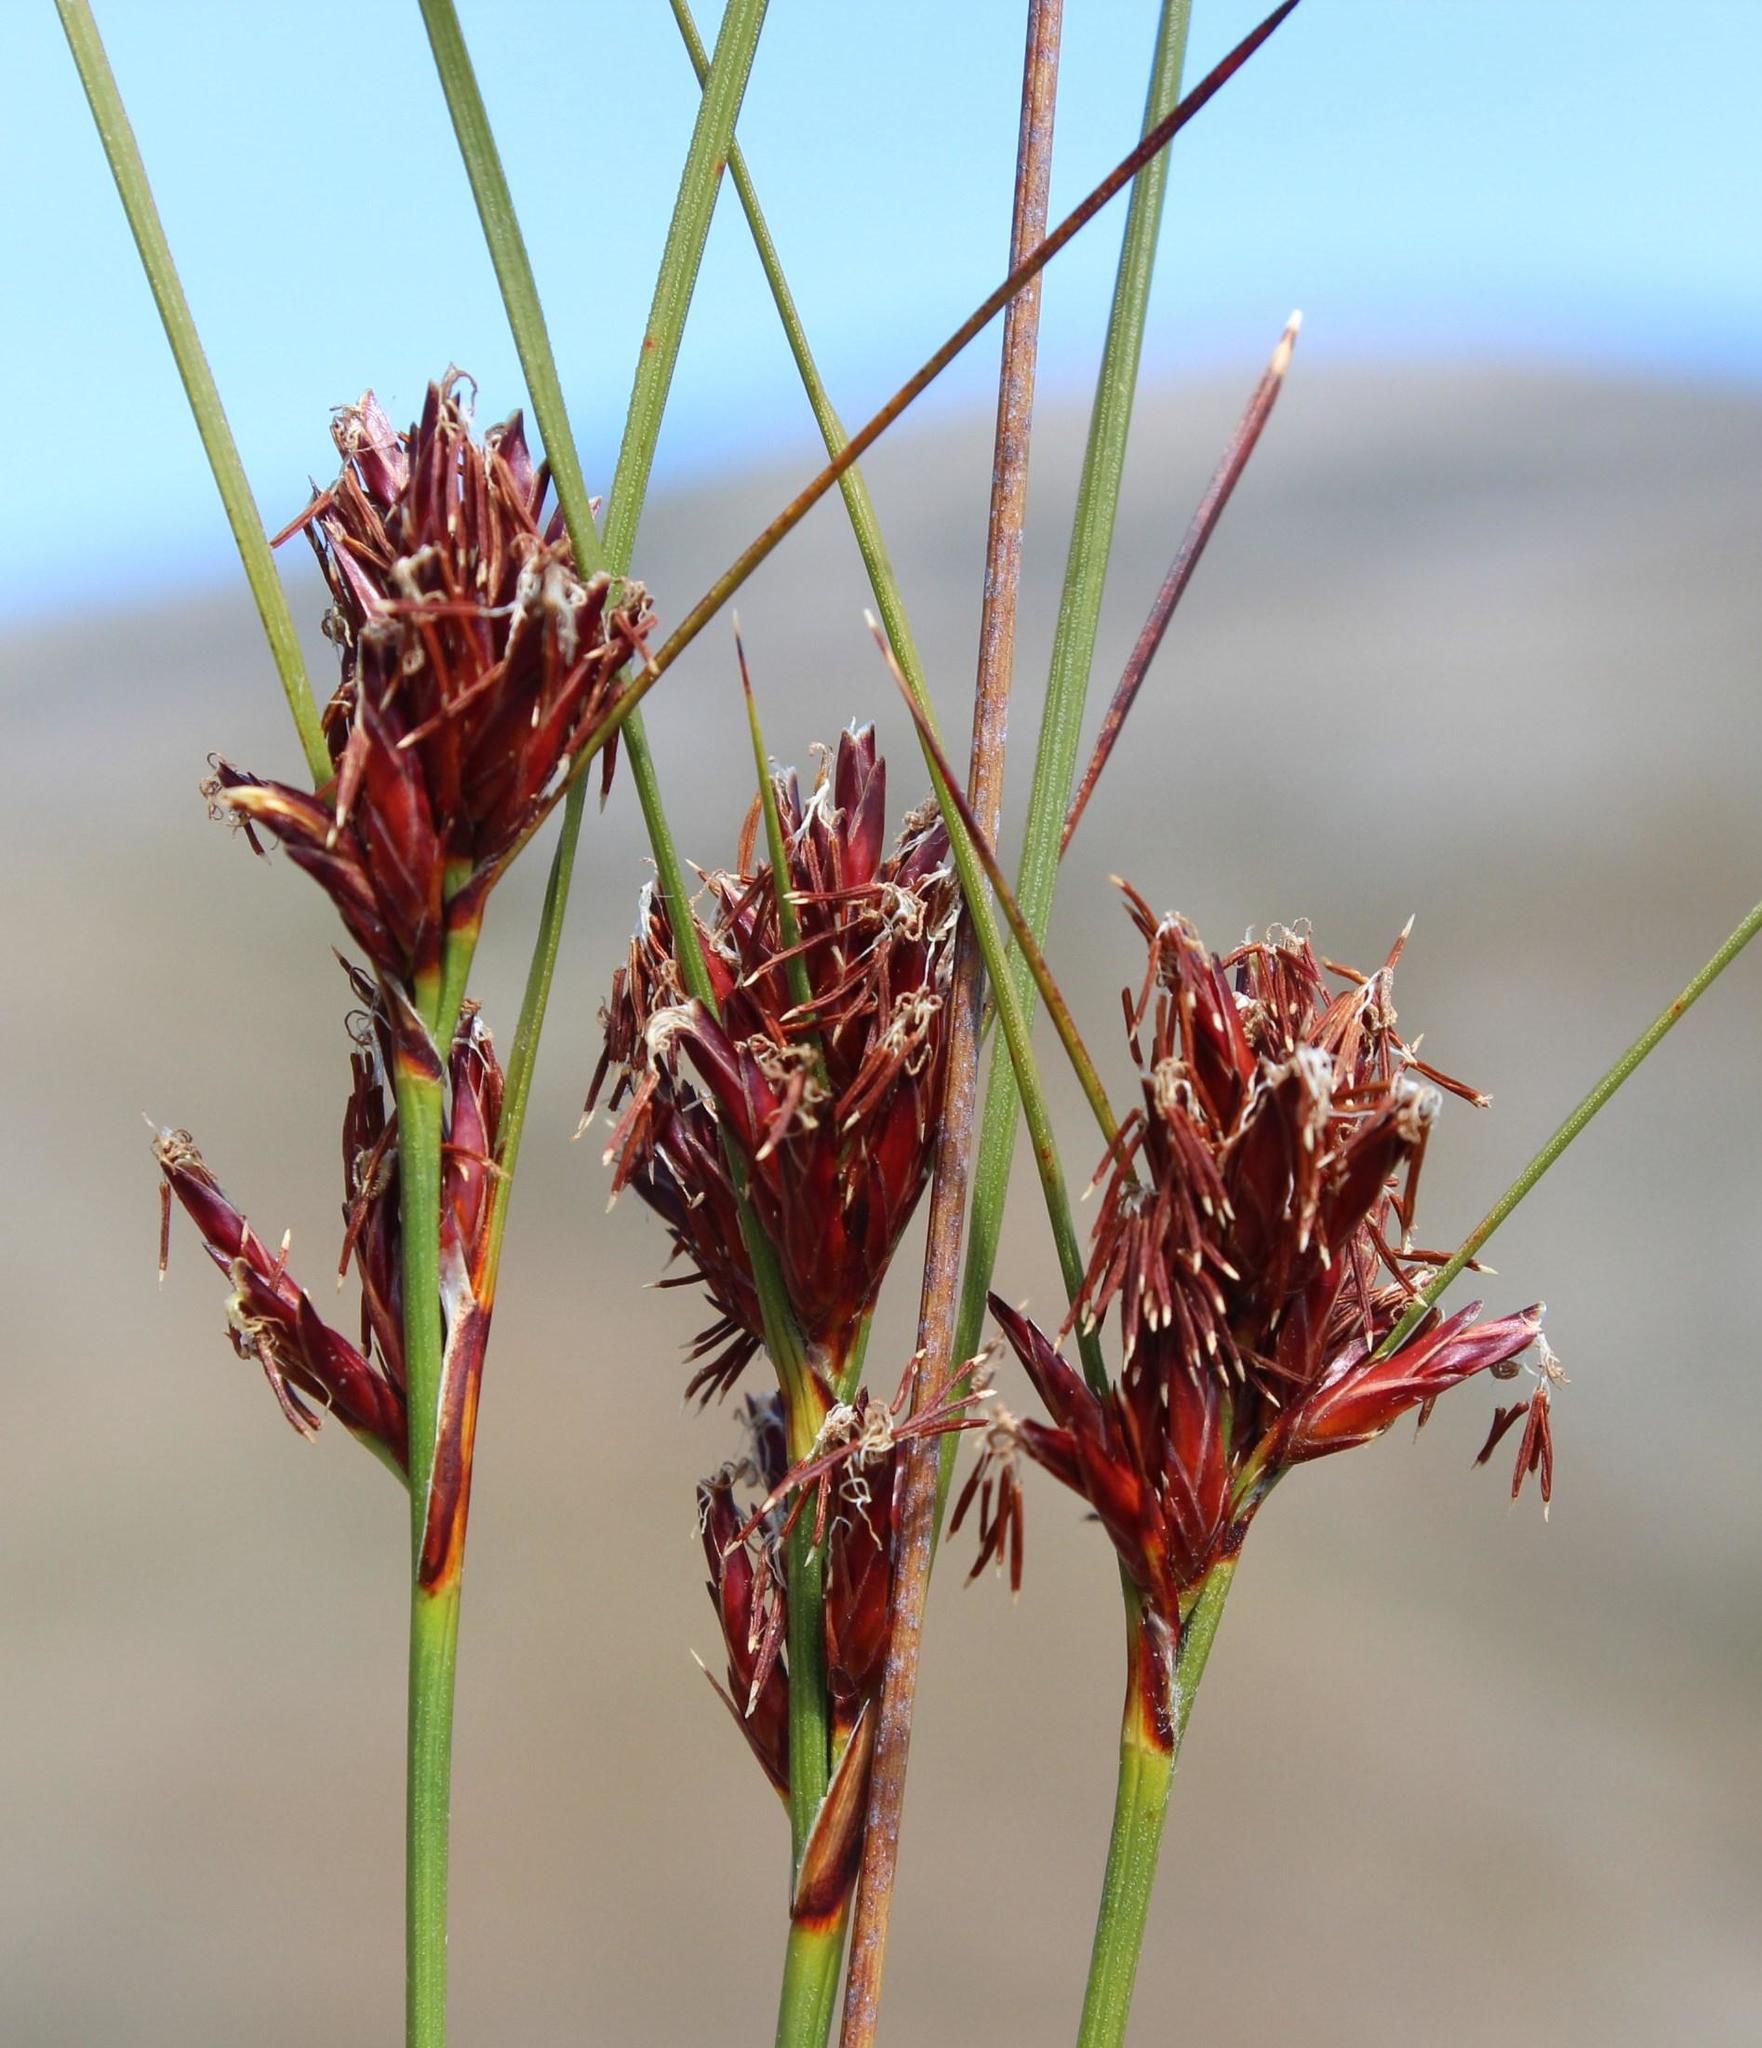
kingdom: Plantae
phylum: Tracheophyta
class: Liliopsida
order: Poales
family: Cyperaceae
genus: Schoenus
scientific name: Schoenus compar
